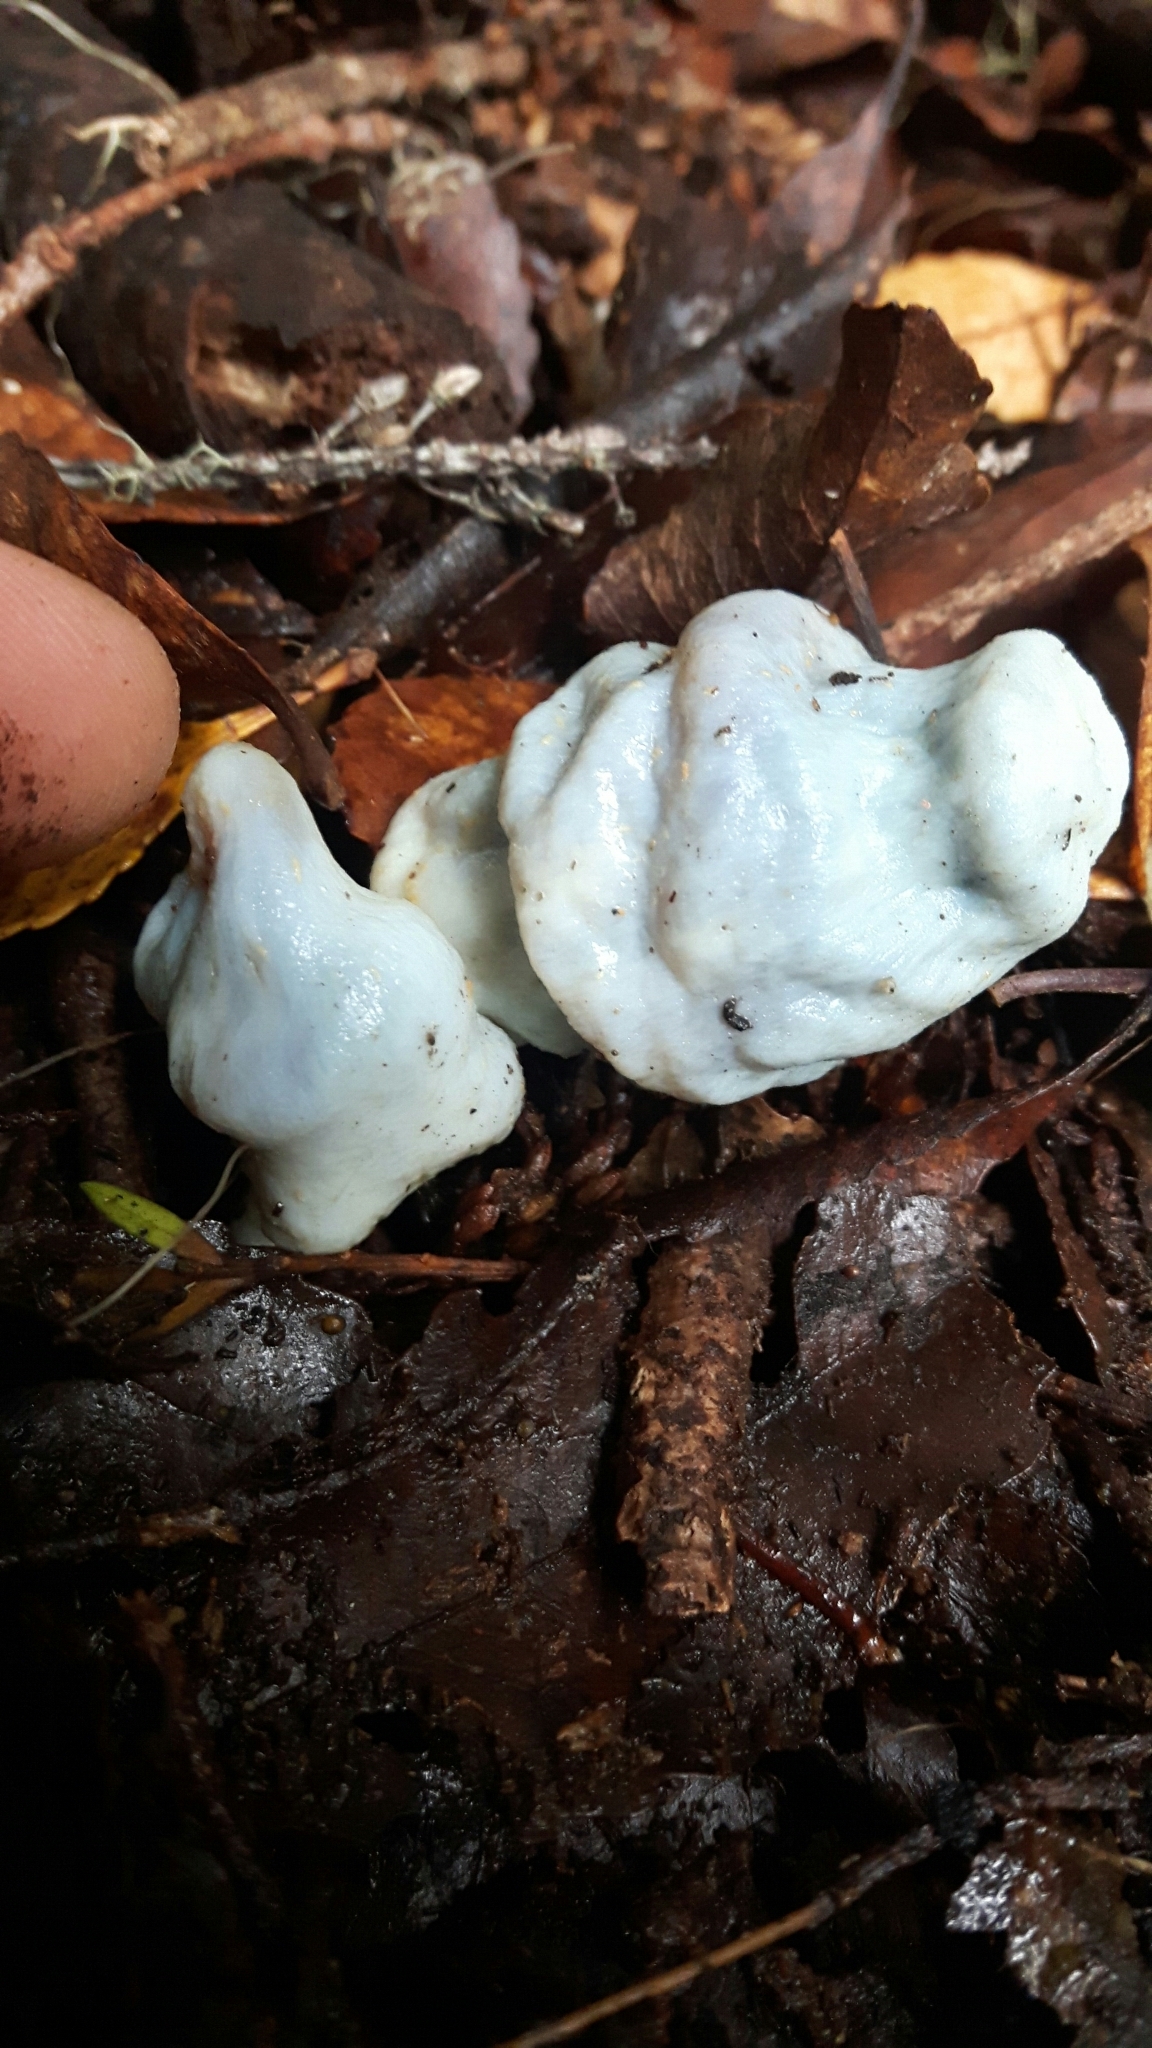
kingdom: Fungi
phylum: Basidiomycota
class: Agaricomycetes
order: Agaricales
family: Agaricaceae
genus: Clavogaster
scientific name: Clavogaster virescens
